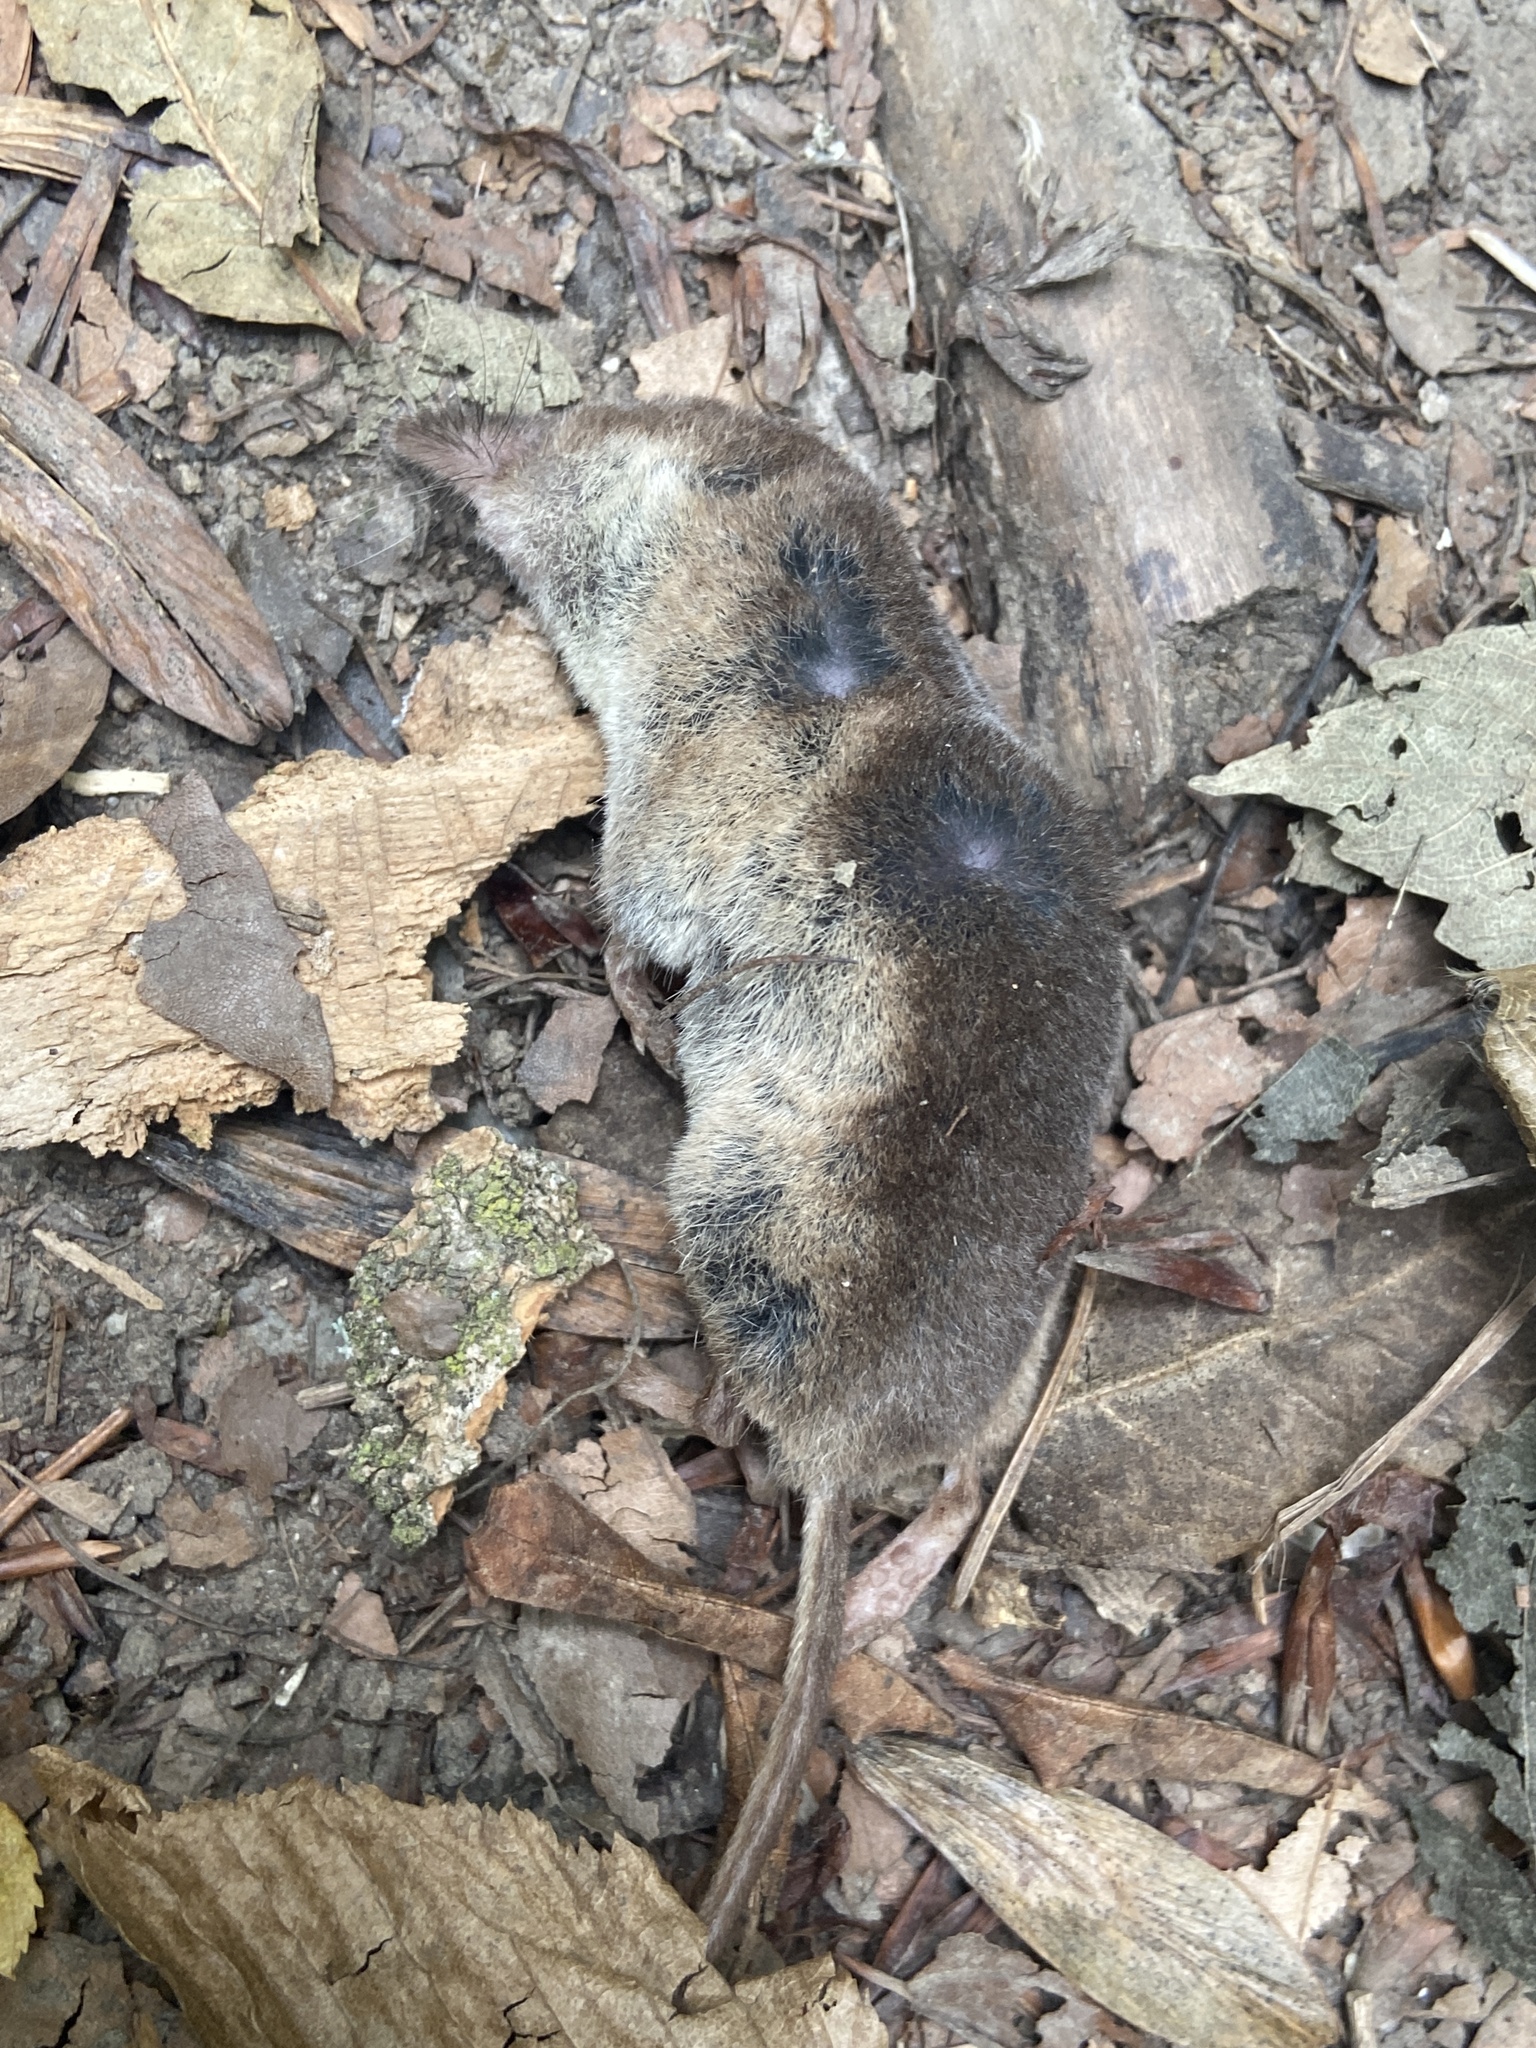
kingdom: Animalia
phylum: Chordata
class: Mammalia
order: Soricomorpha
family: Soricidae
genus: Sorex
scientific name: Sorex araneus
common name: Common shrew
